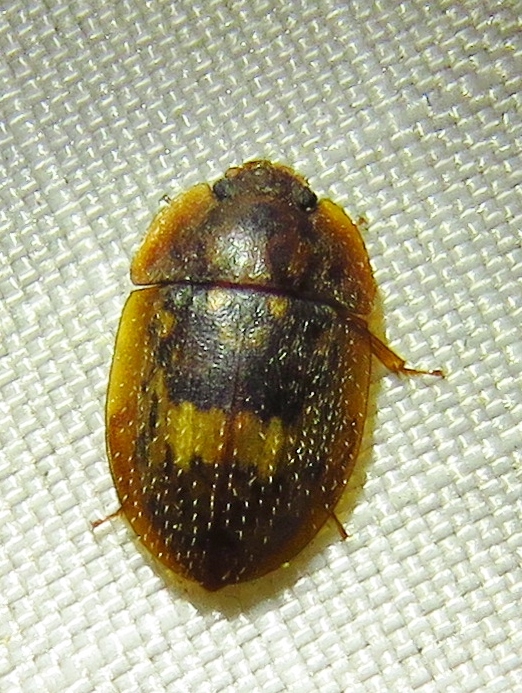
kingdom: Animalia
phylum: Arthropoda
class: Insecta
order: Coleoptera
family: Nitidulidae
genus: Lobiopa
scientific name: Lobiopa insularis
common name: Sap beetle
